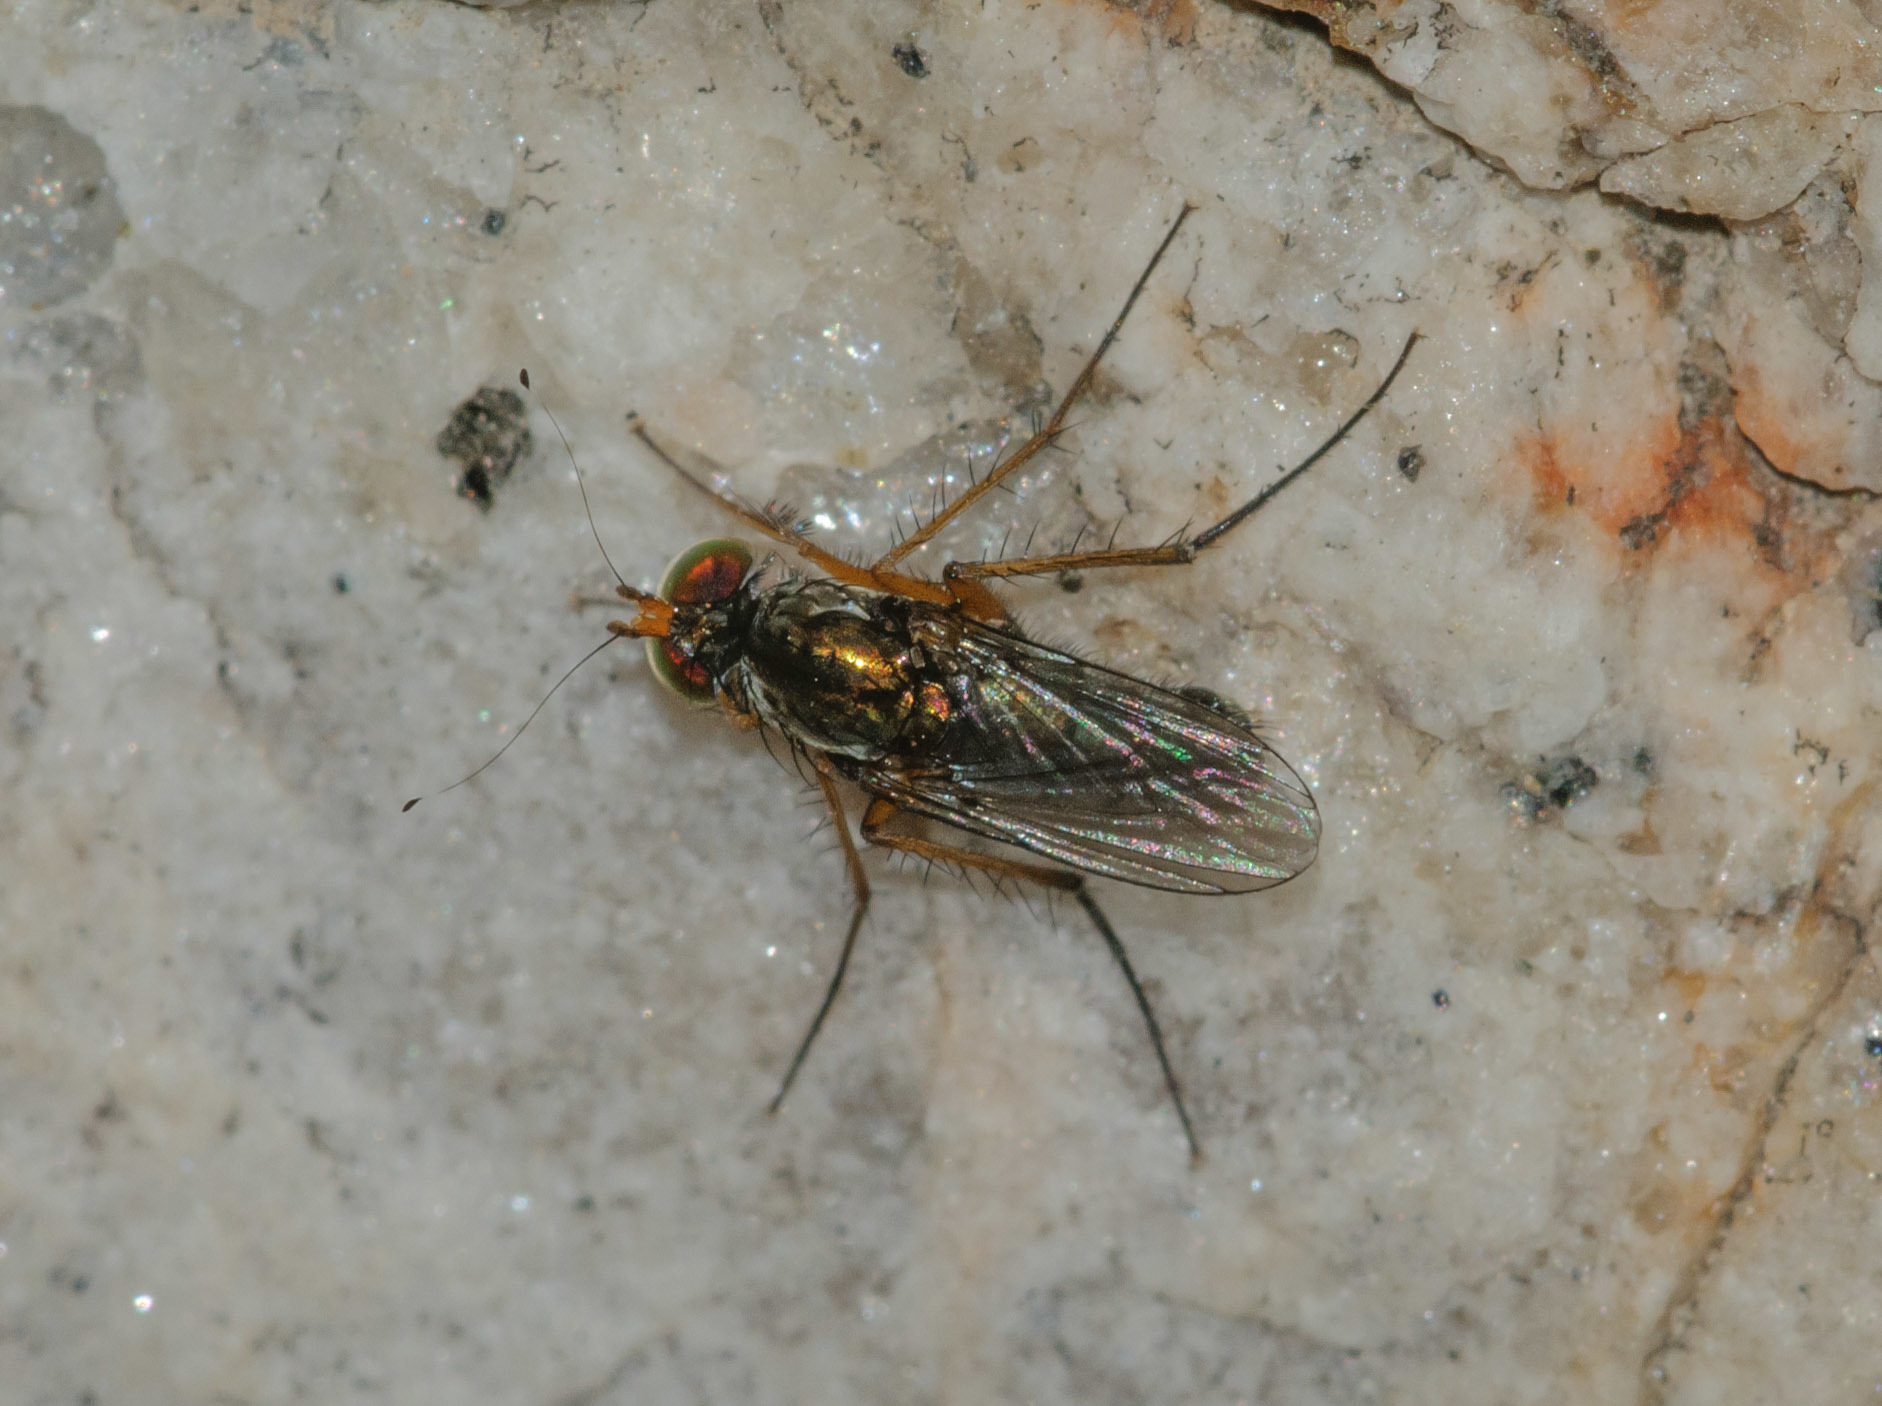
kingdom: Animalia
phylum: Arthropoda
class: Insecta
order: Diptera
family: Dolichopodidae
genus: Tachytrechus
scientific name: Tachytrechus sanus
